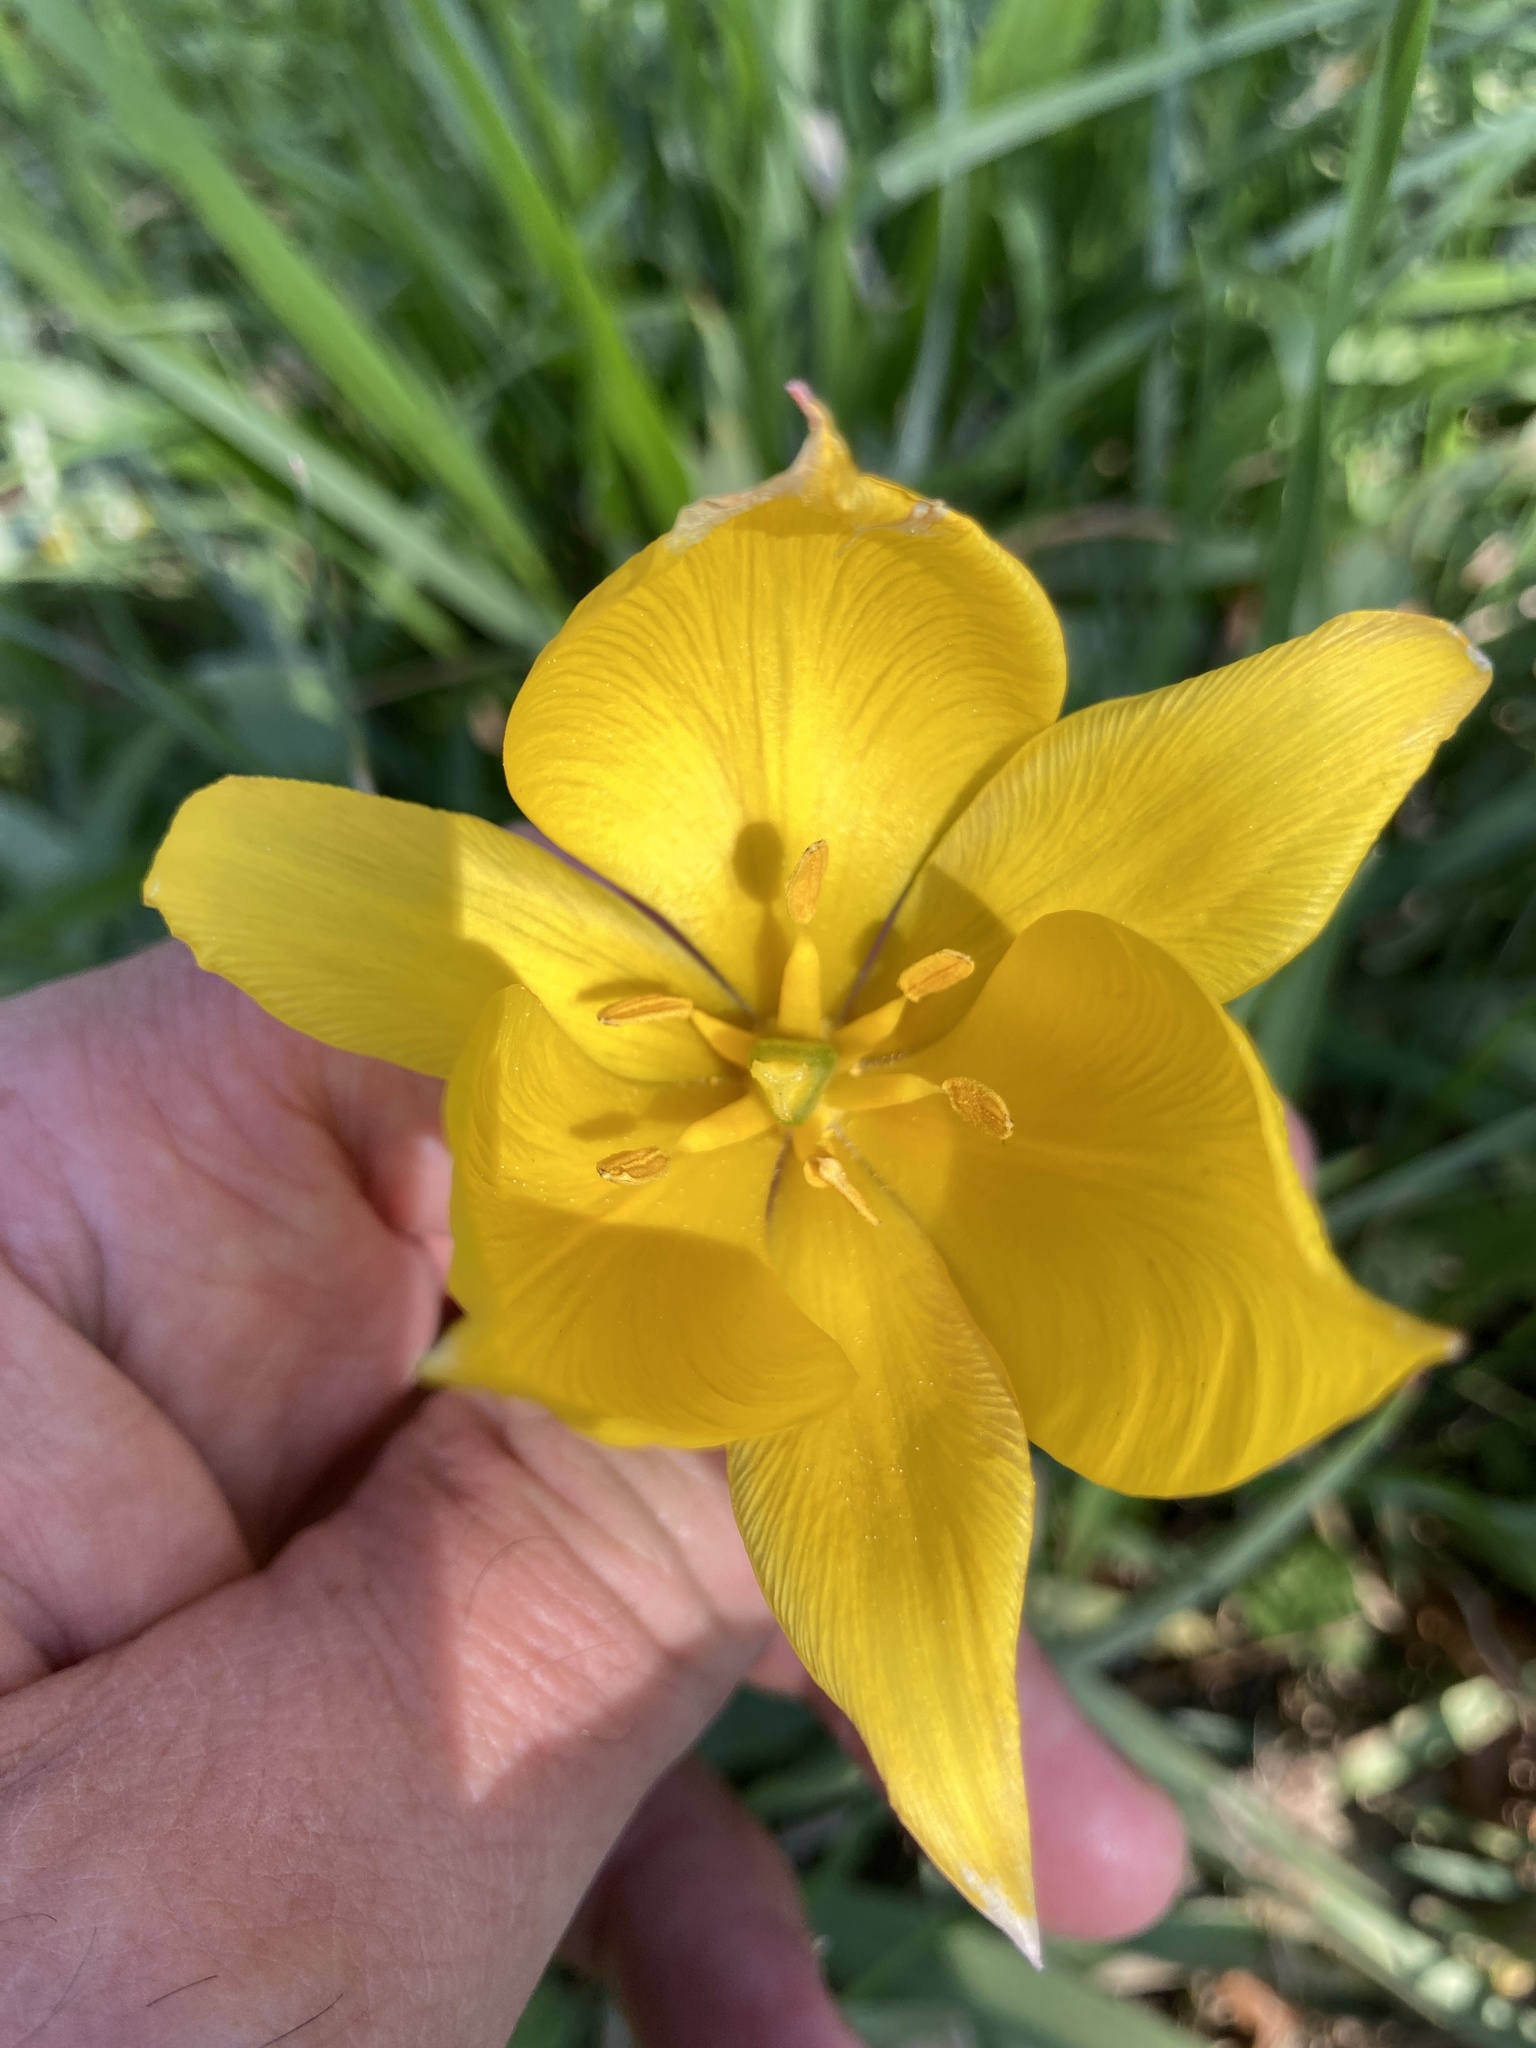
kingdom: Plantae
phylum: Tracheophyta
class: Liliopsida
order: Liliales
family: Liliaceae
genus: Tulipa
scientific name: Tulipa sylvestris
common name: Wild tulip
